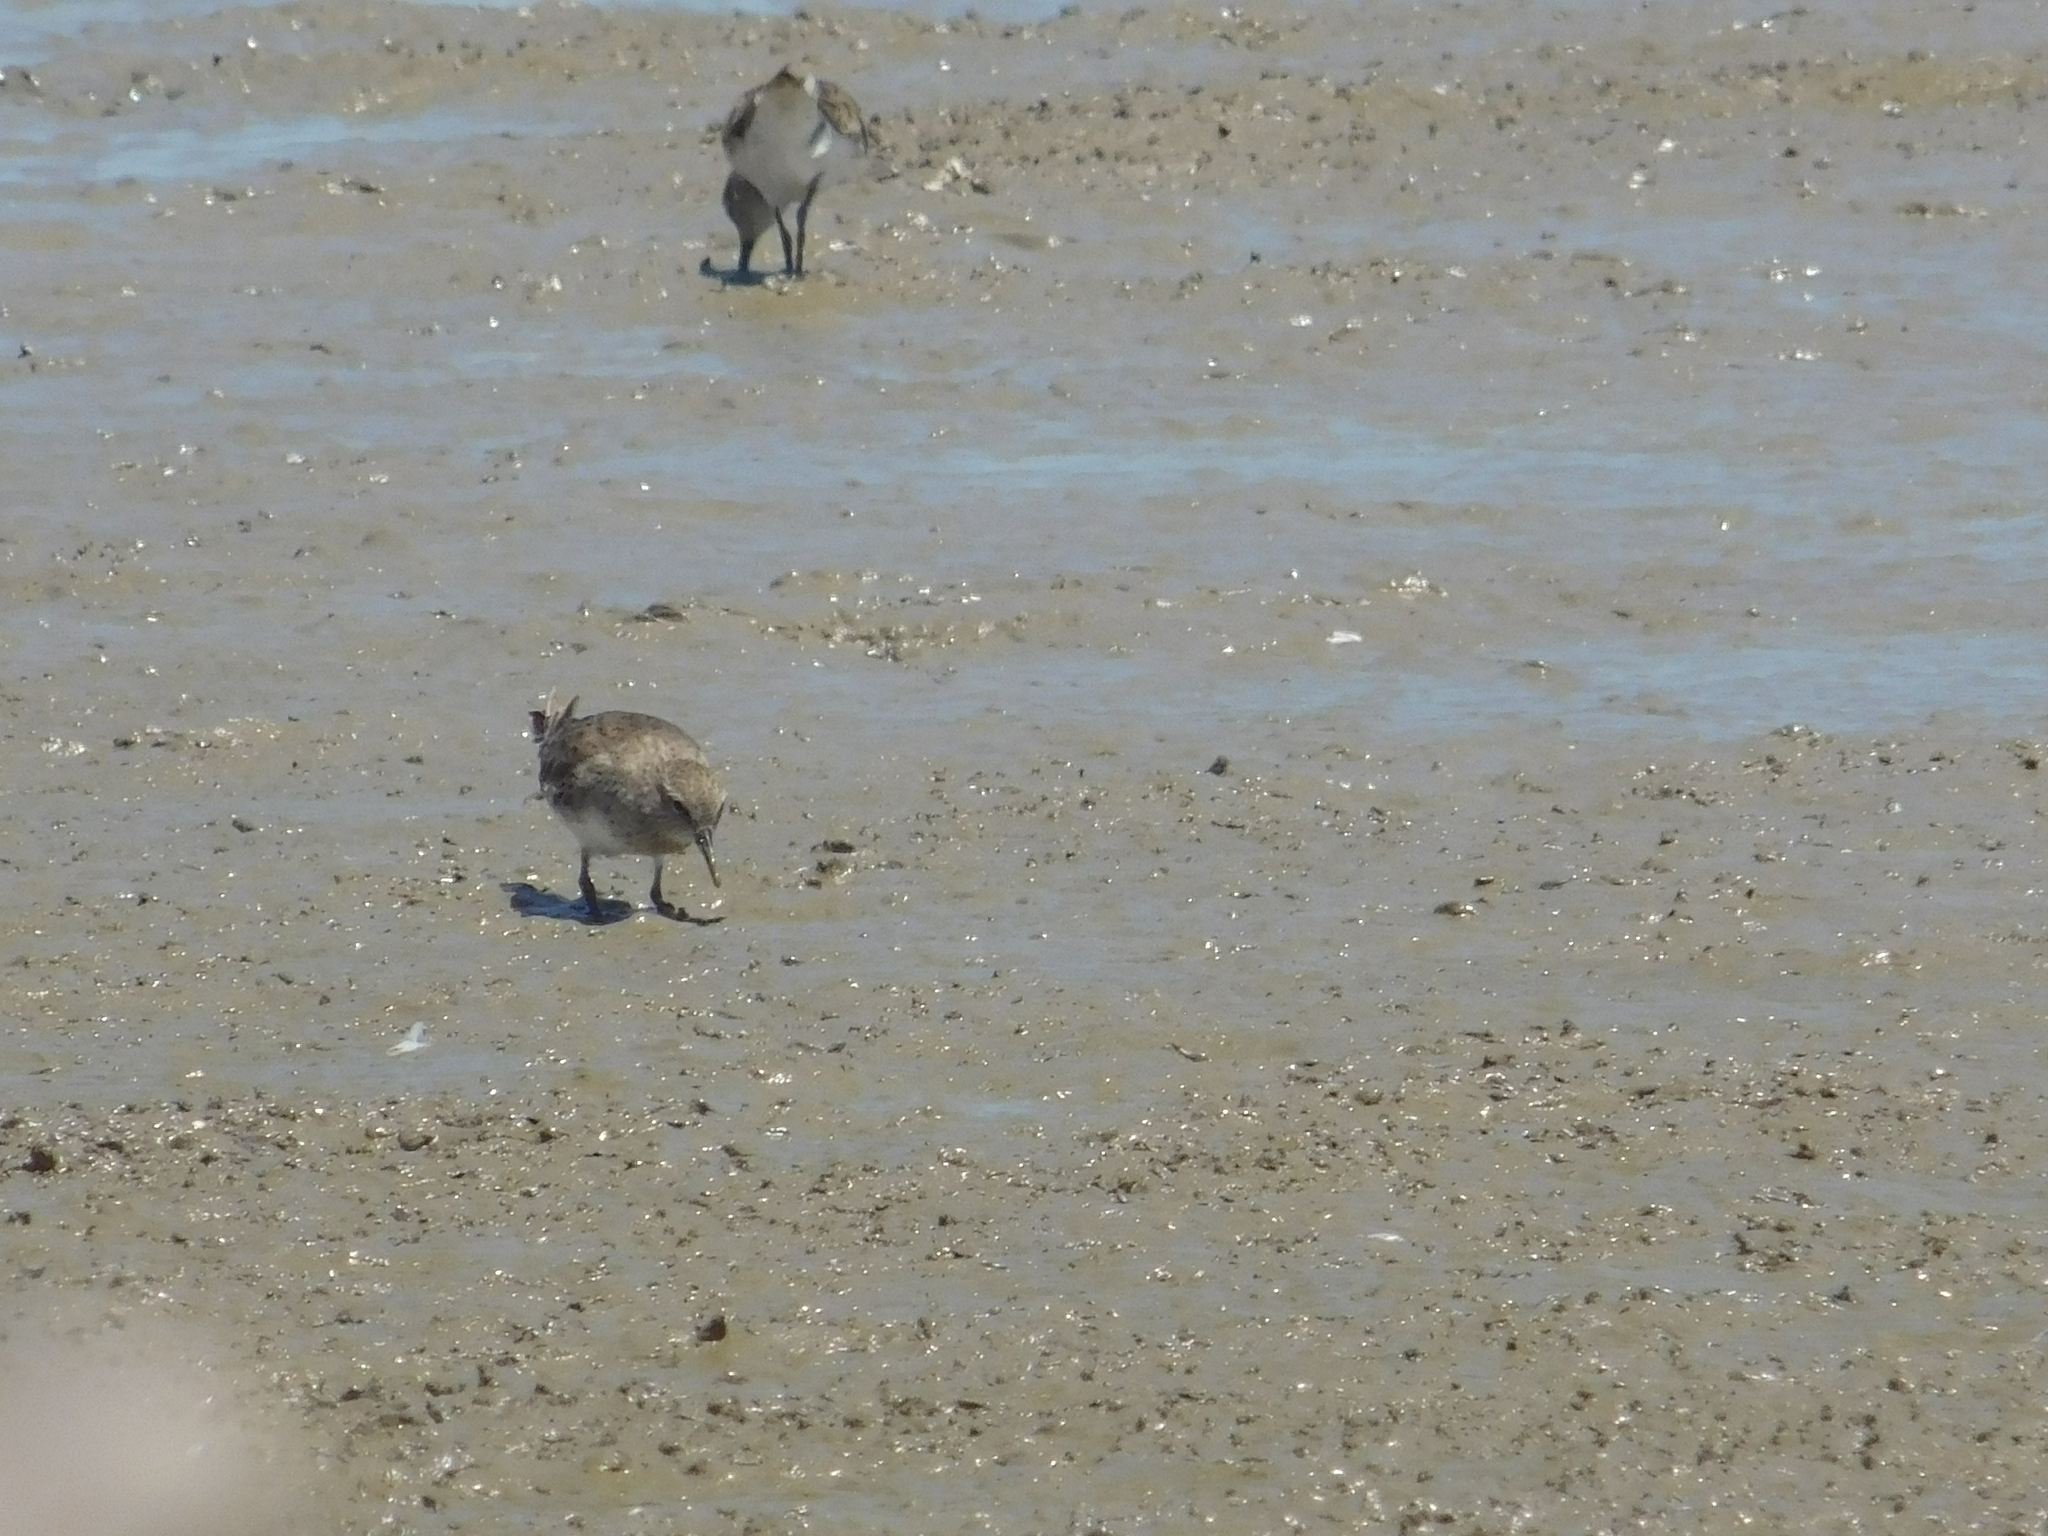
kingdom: Animalia
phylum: Chordata
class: Aves
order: Charadriiformes
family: Scolopacidae
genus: Calidris
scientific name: Calidris fuscicollis
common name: White-rumped sandpiper
